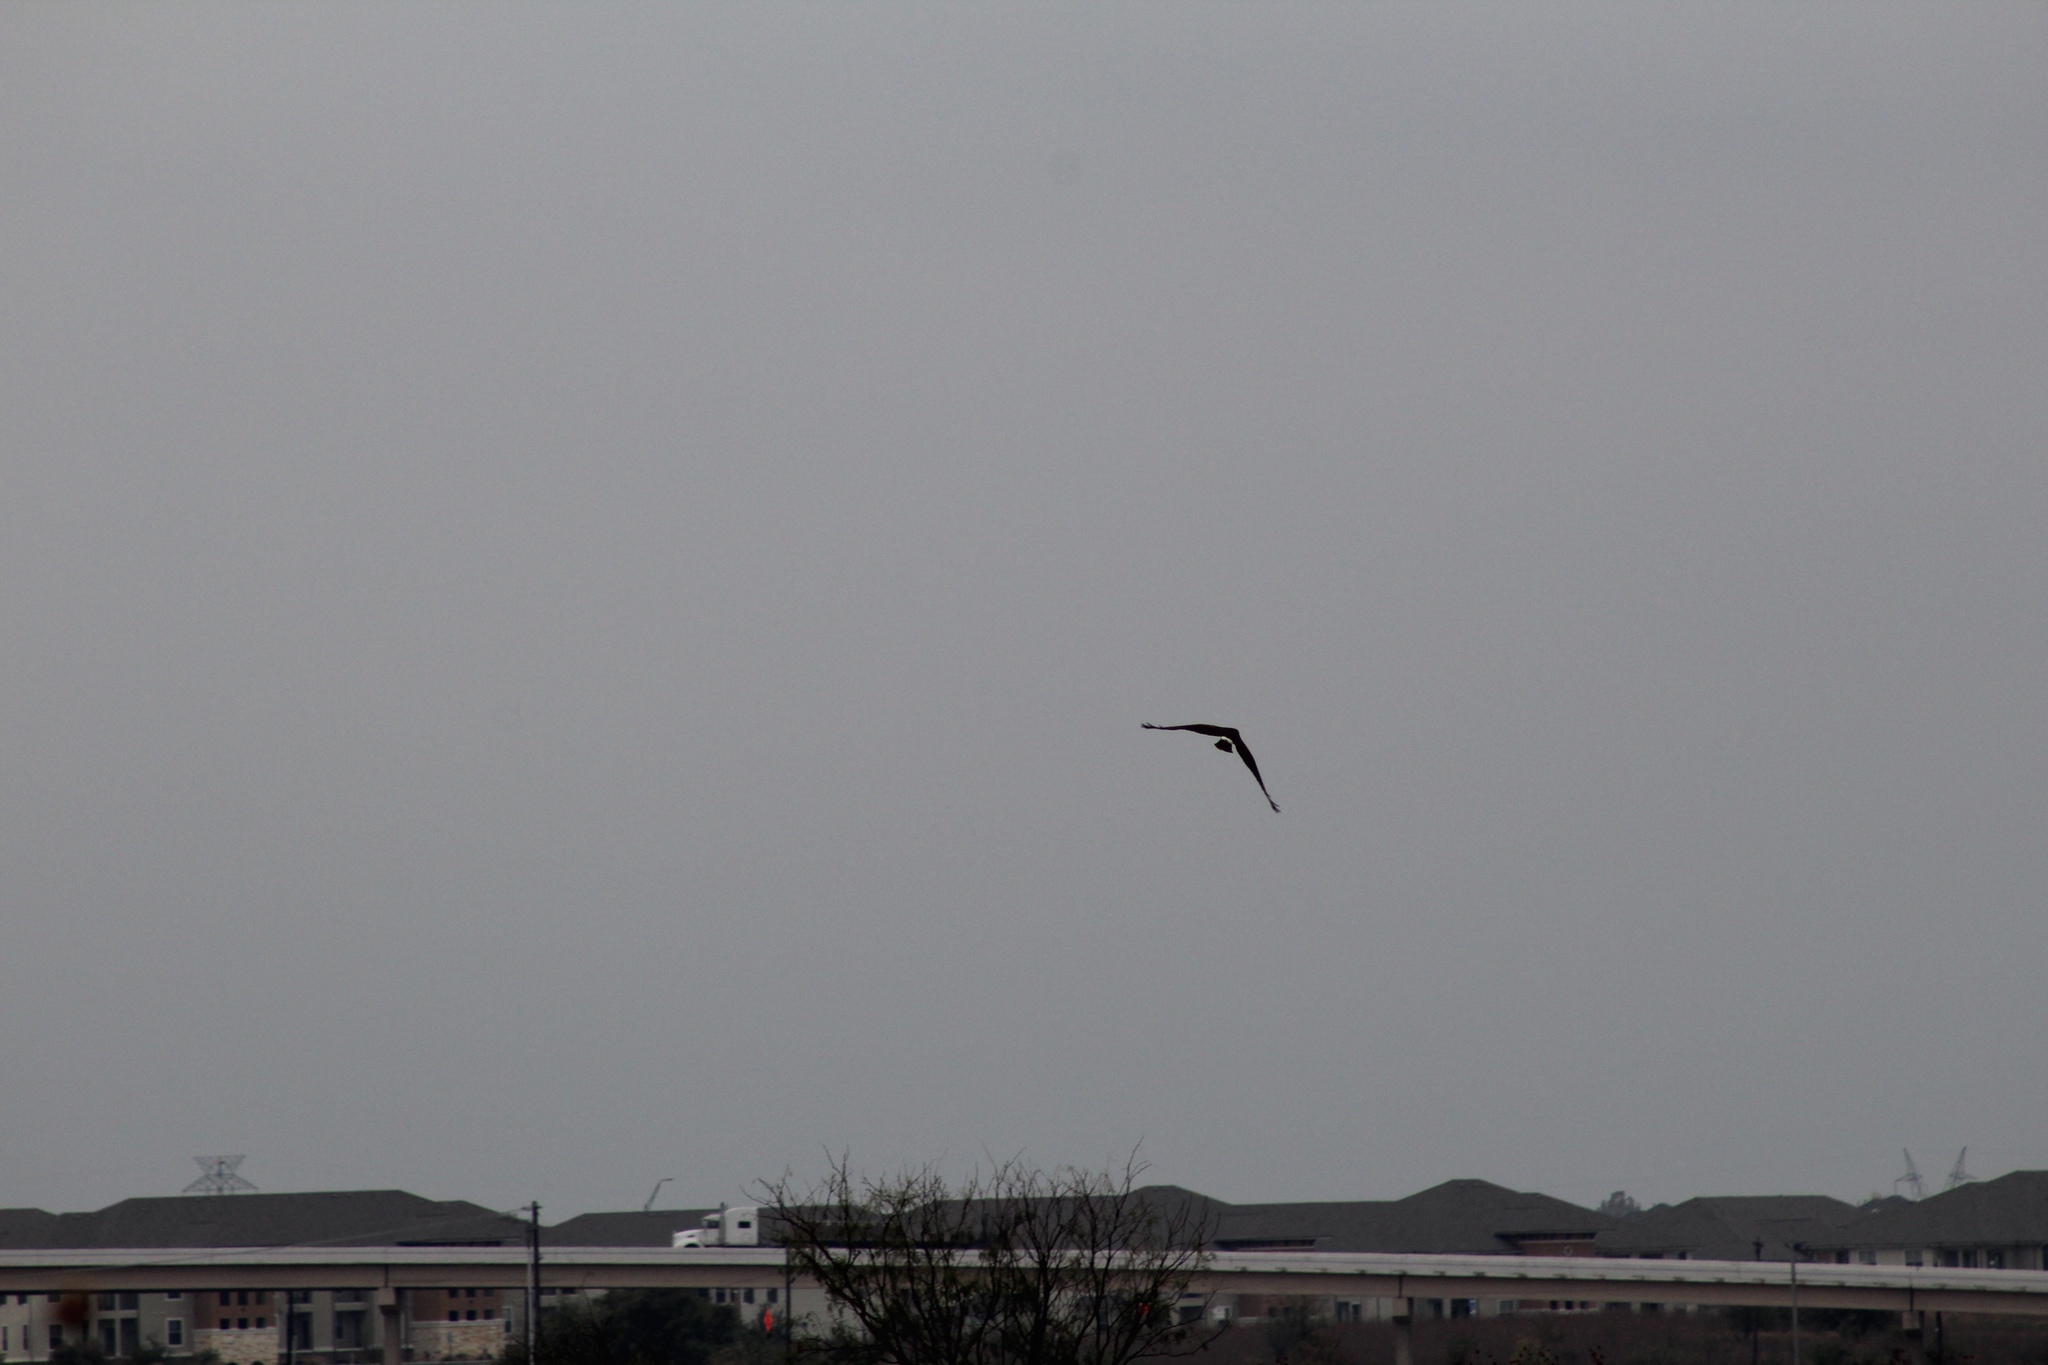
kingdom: Animalia
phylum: Chordata
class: Aves
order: Accipitriformes
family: Accipitridae
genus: Circus
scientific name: Circus cyaneus
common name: Hen harrier
